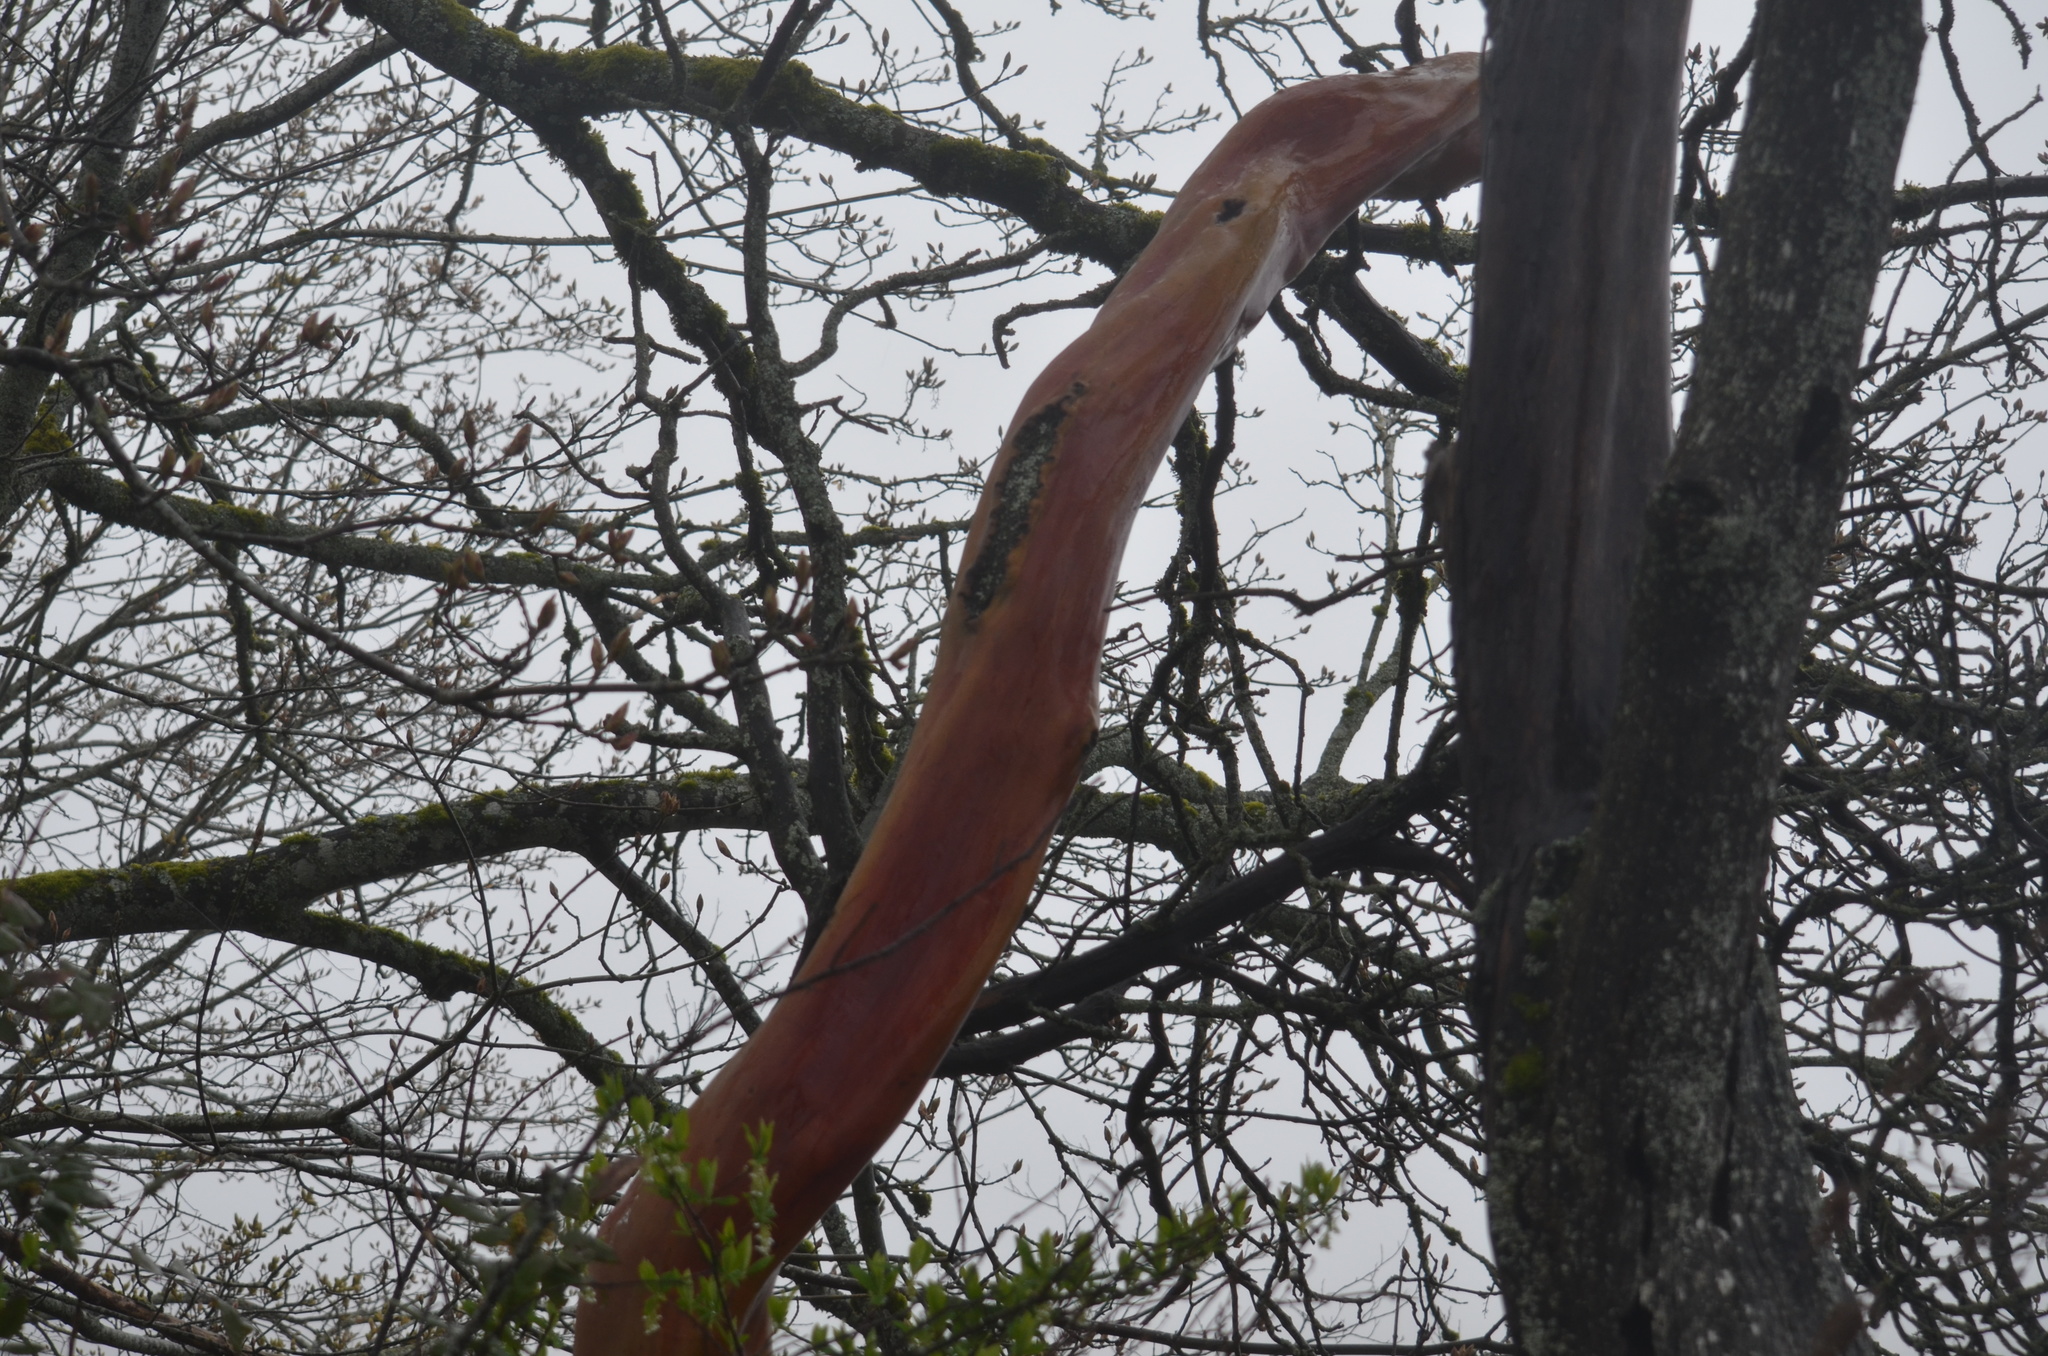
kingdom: Plantae
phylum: Tracheophyta
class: Magnoliopsida
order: Ericales
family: Ericaceae
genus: Arbutus
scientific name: Arbutus menziesii
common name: Pacific madrone
